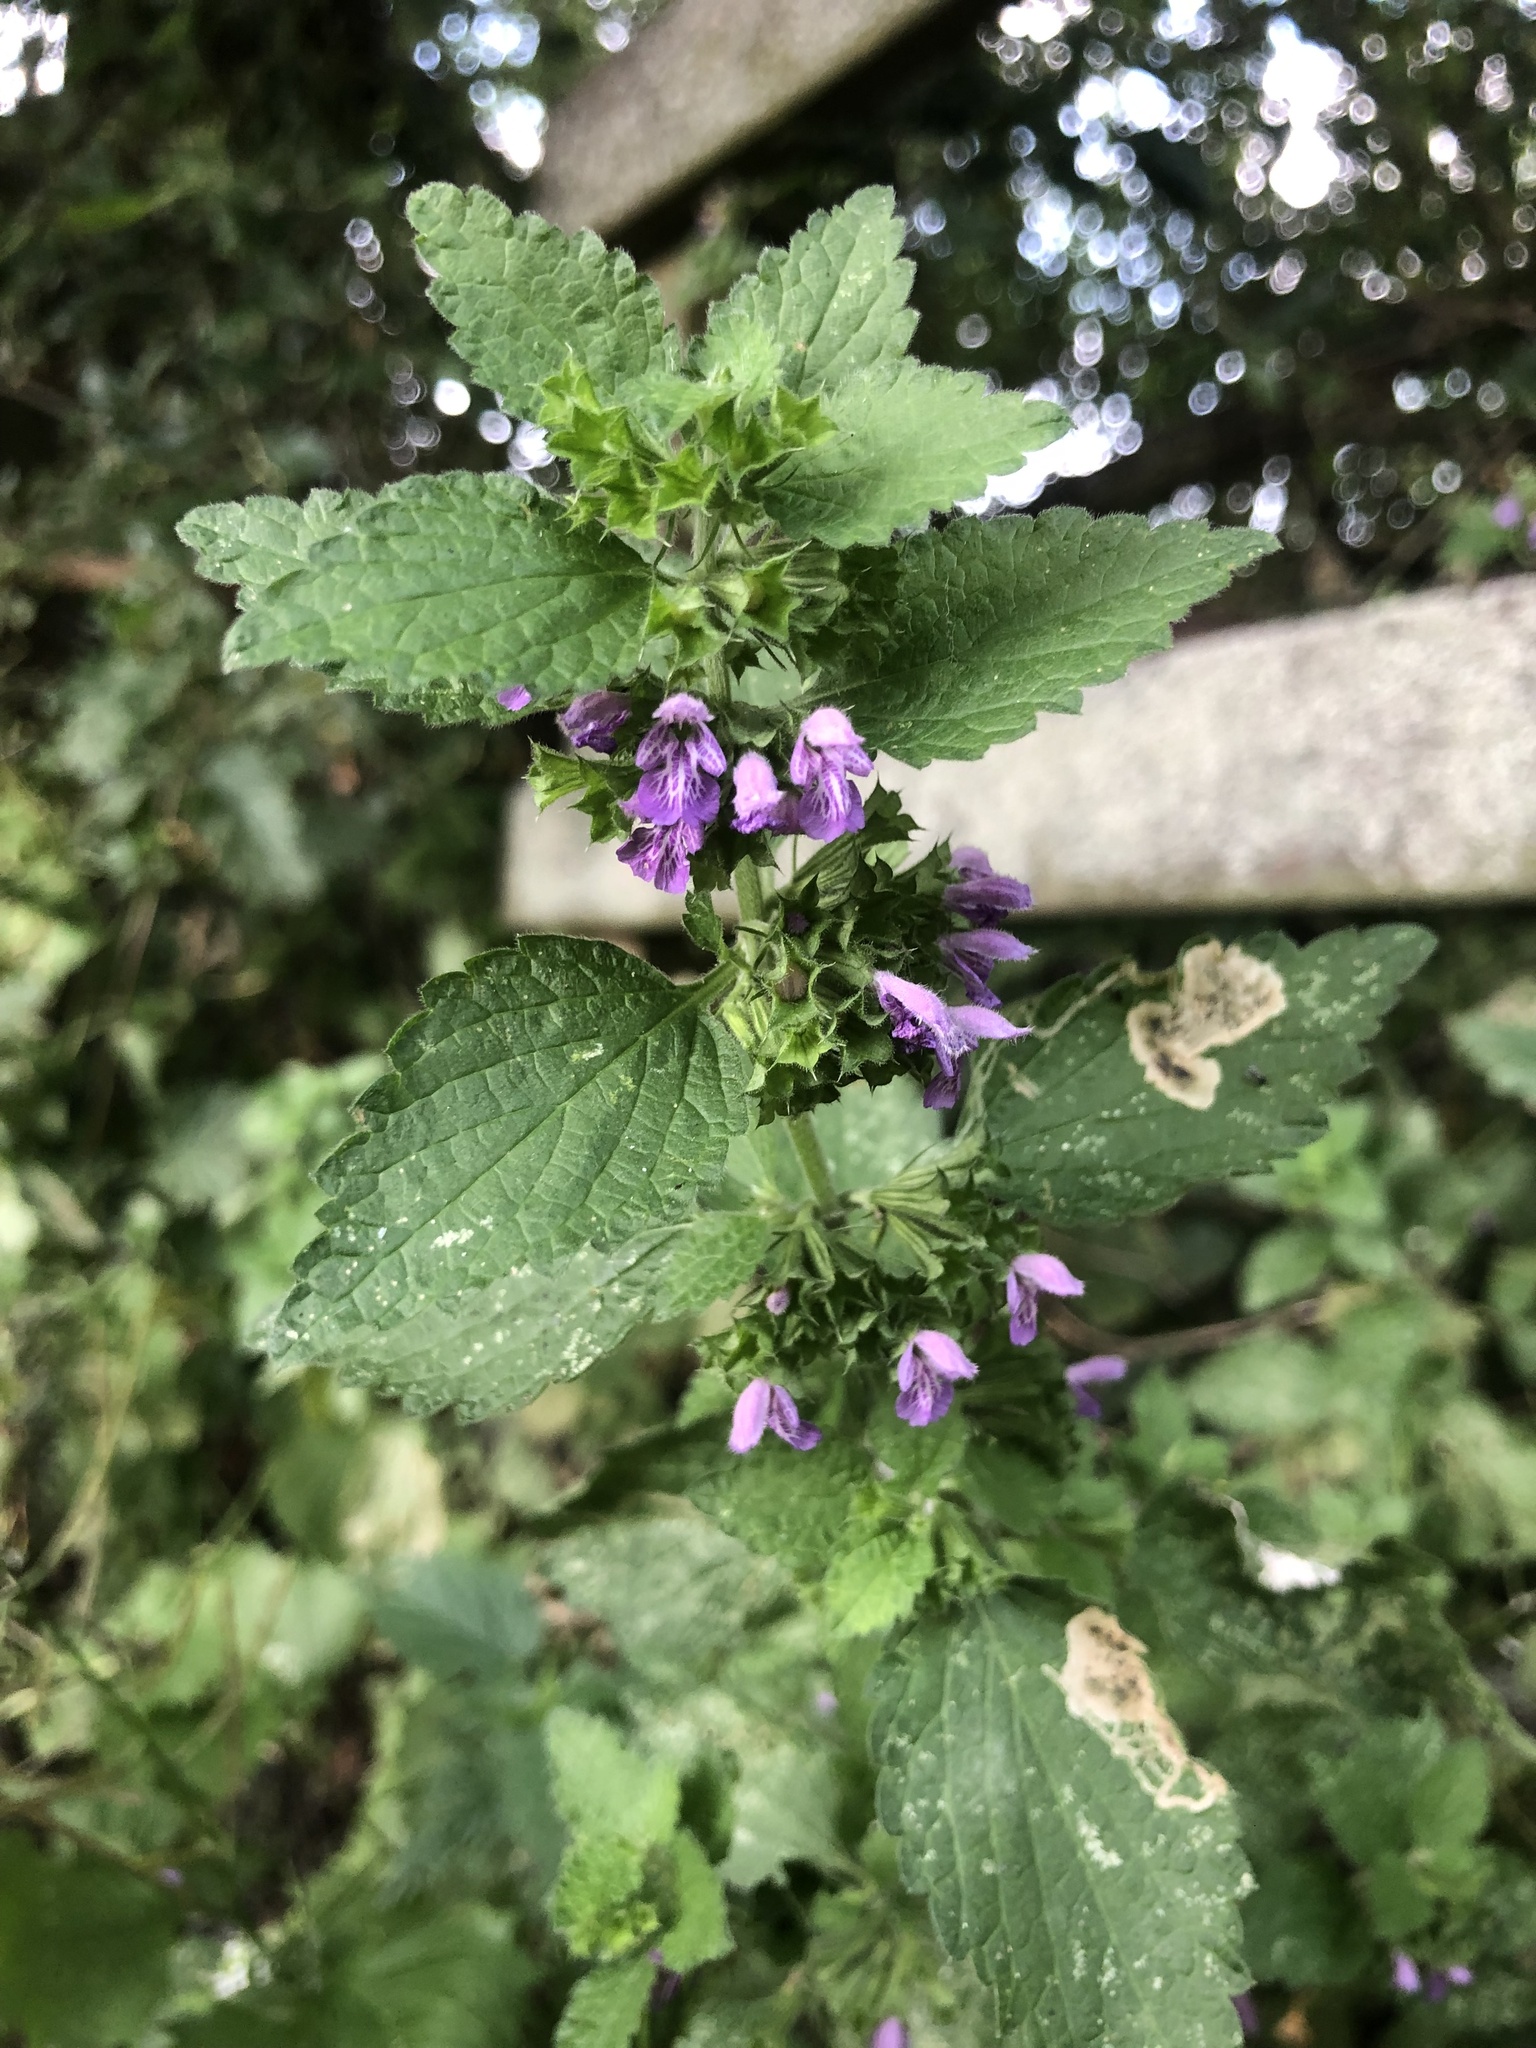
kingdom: Plantae
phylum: Tracheophyta
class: Magnoliopsida
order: Lamiales
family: Lamiaceae
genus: Ballota
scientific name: Ballota nigra
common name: Black horehound
